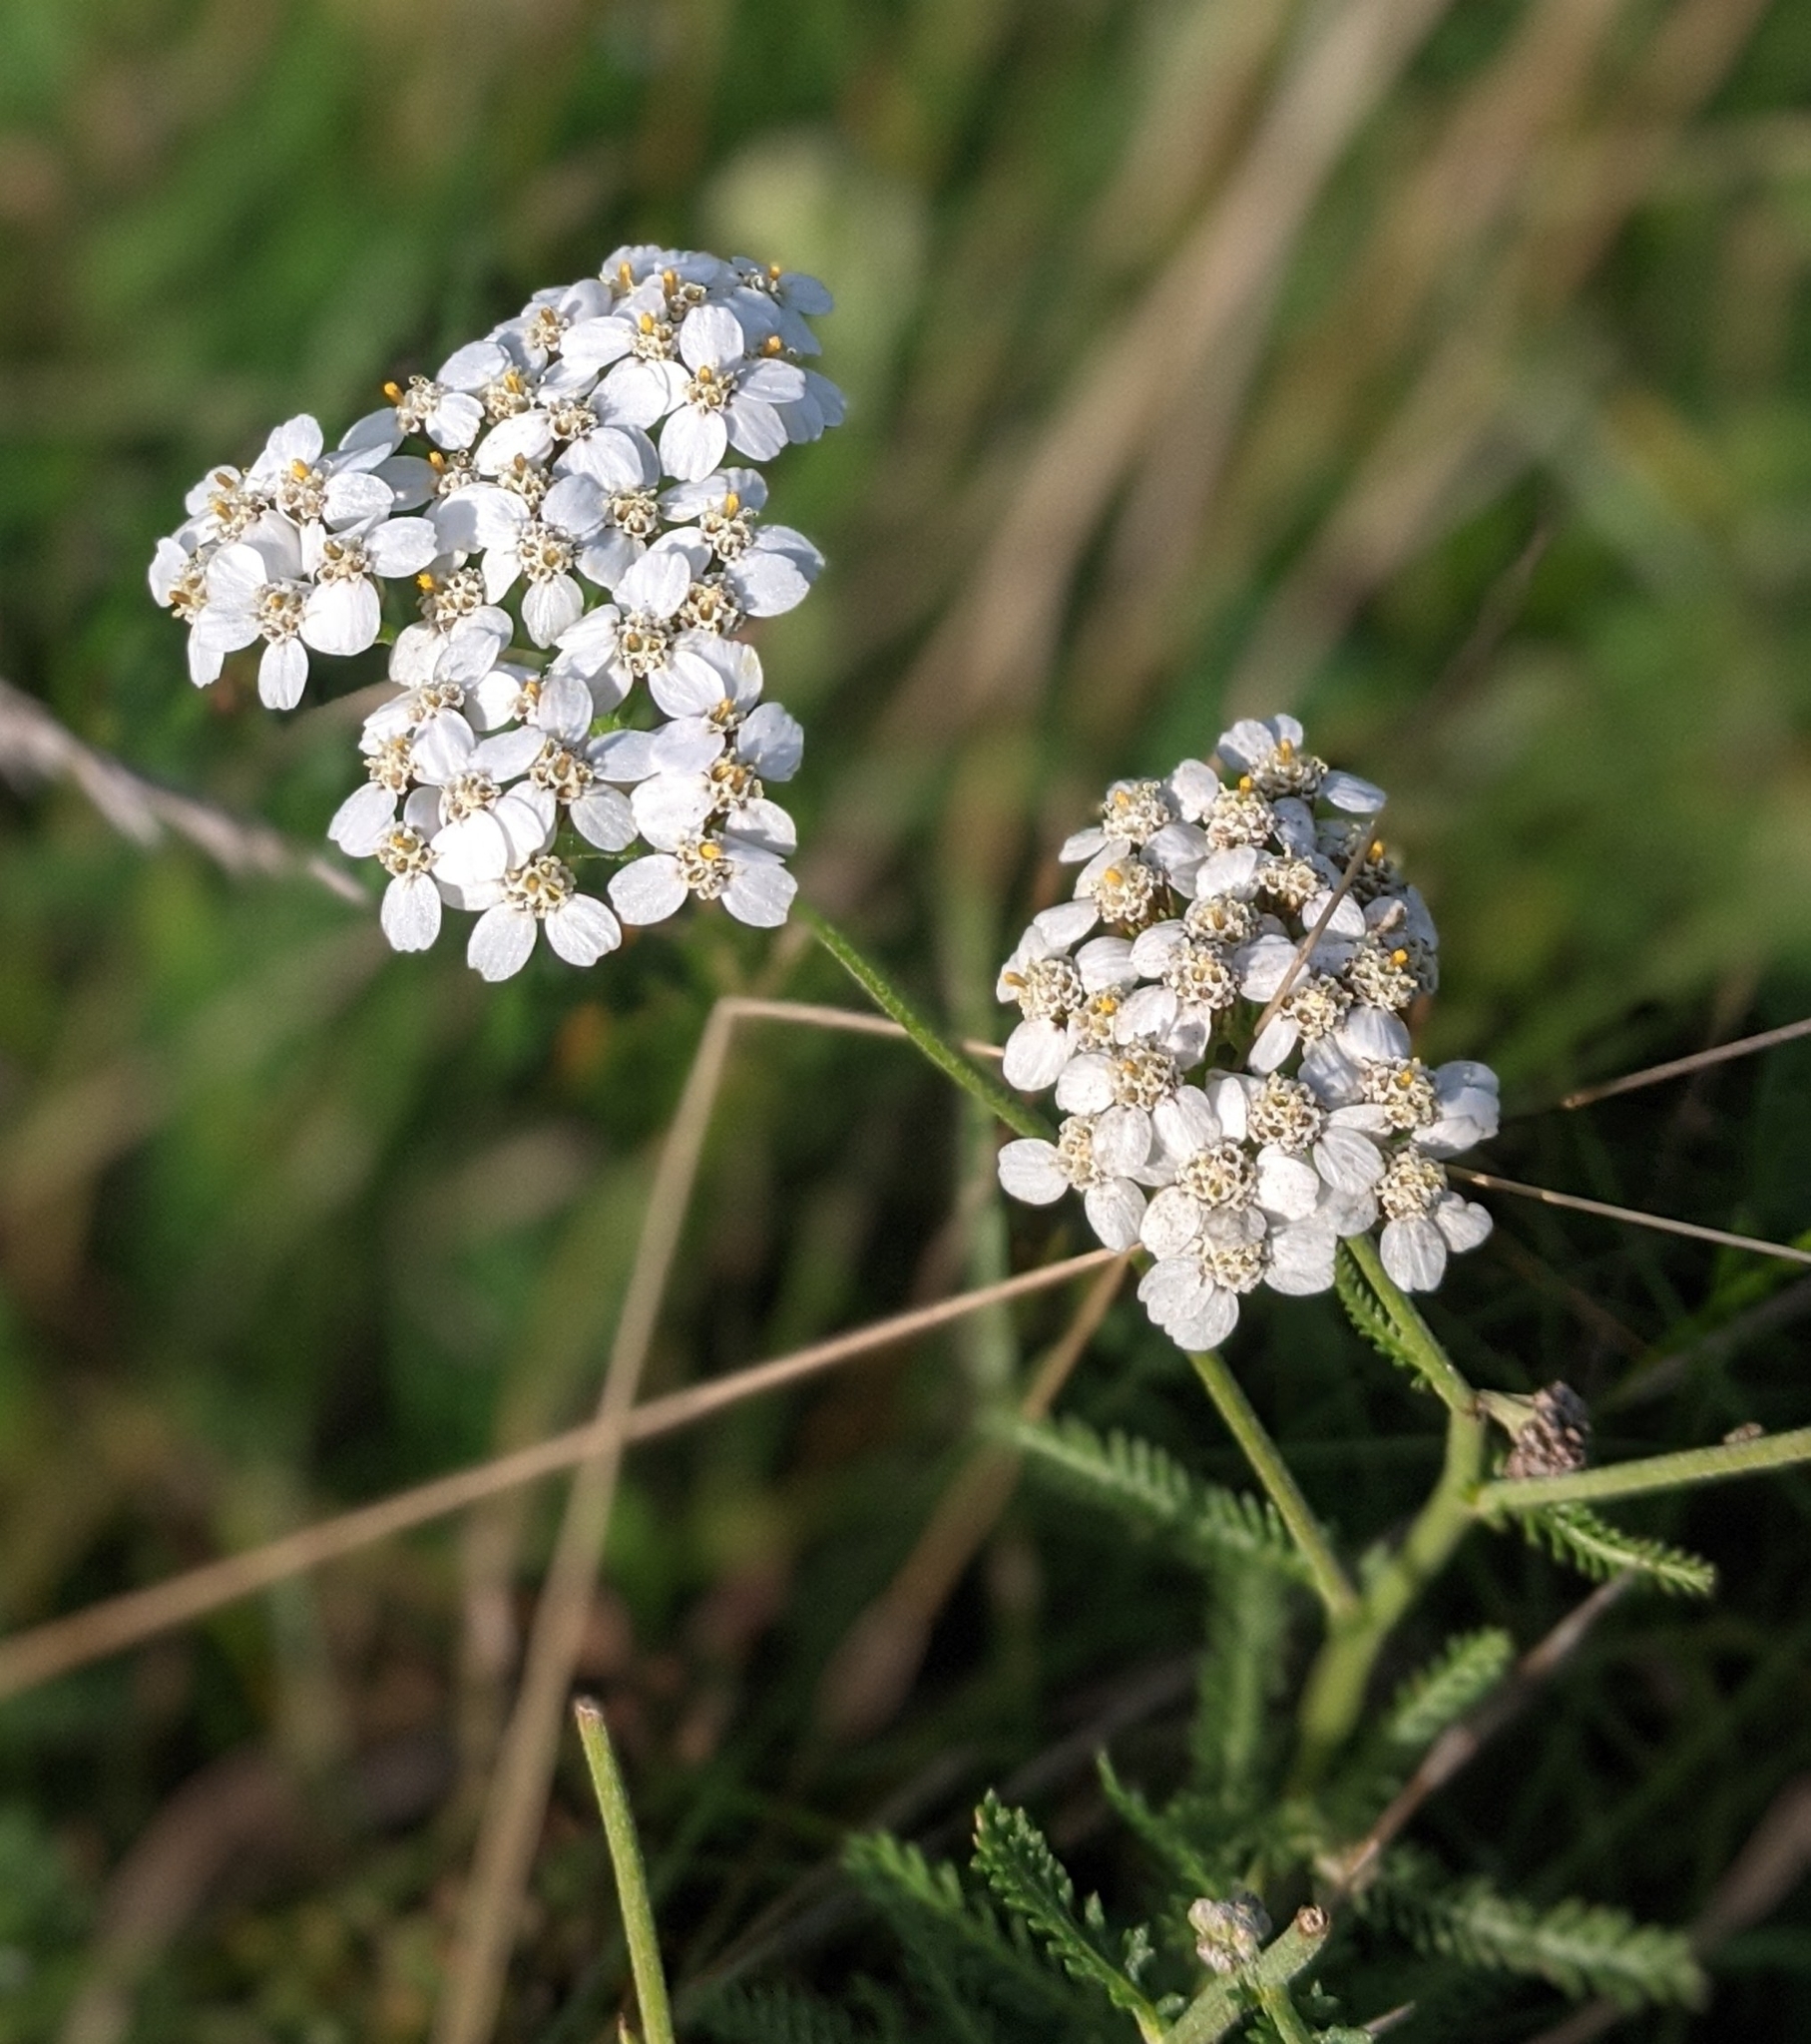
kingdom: Plantae
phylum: Tracheophyta
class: Magnoliopsida
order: Asterales
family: Asteraceae
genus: Achillea
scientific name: Achillea millefolium
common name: Yarrow
